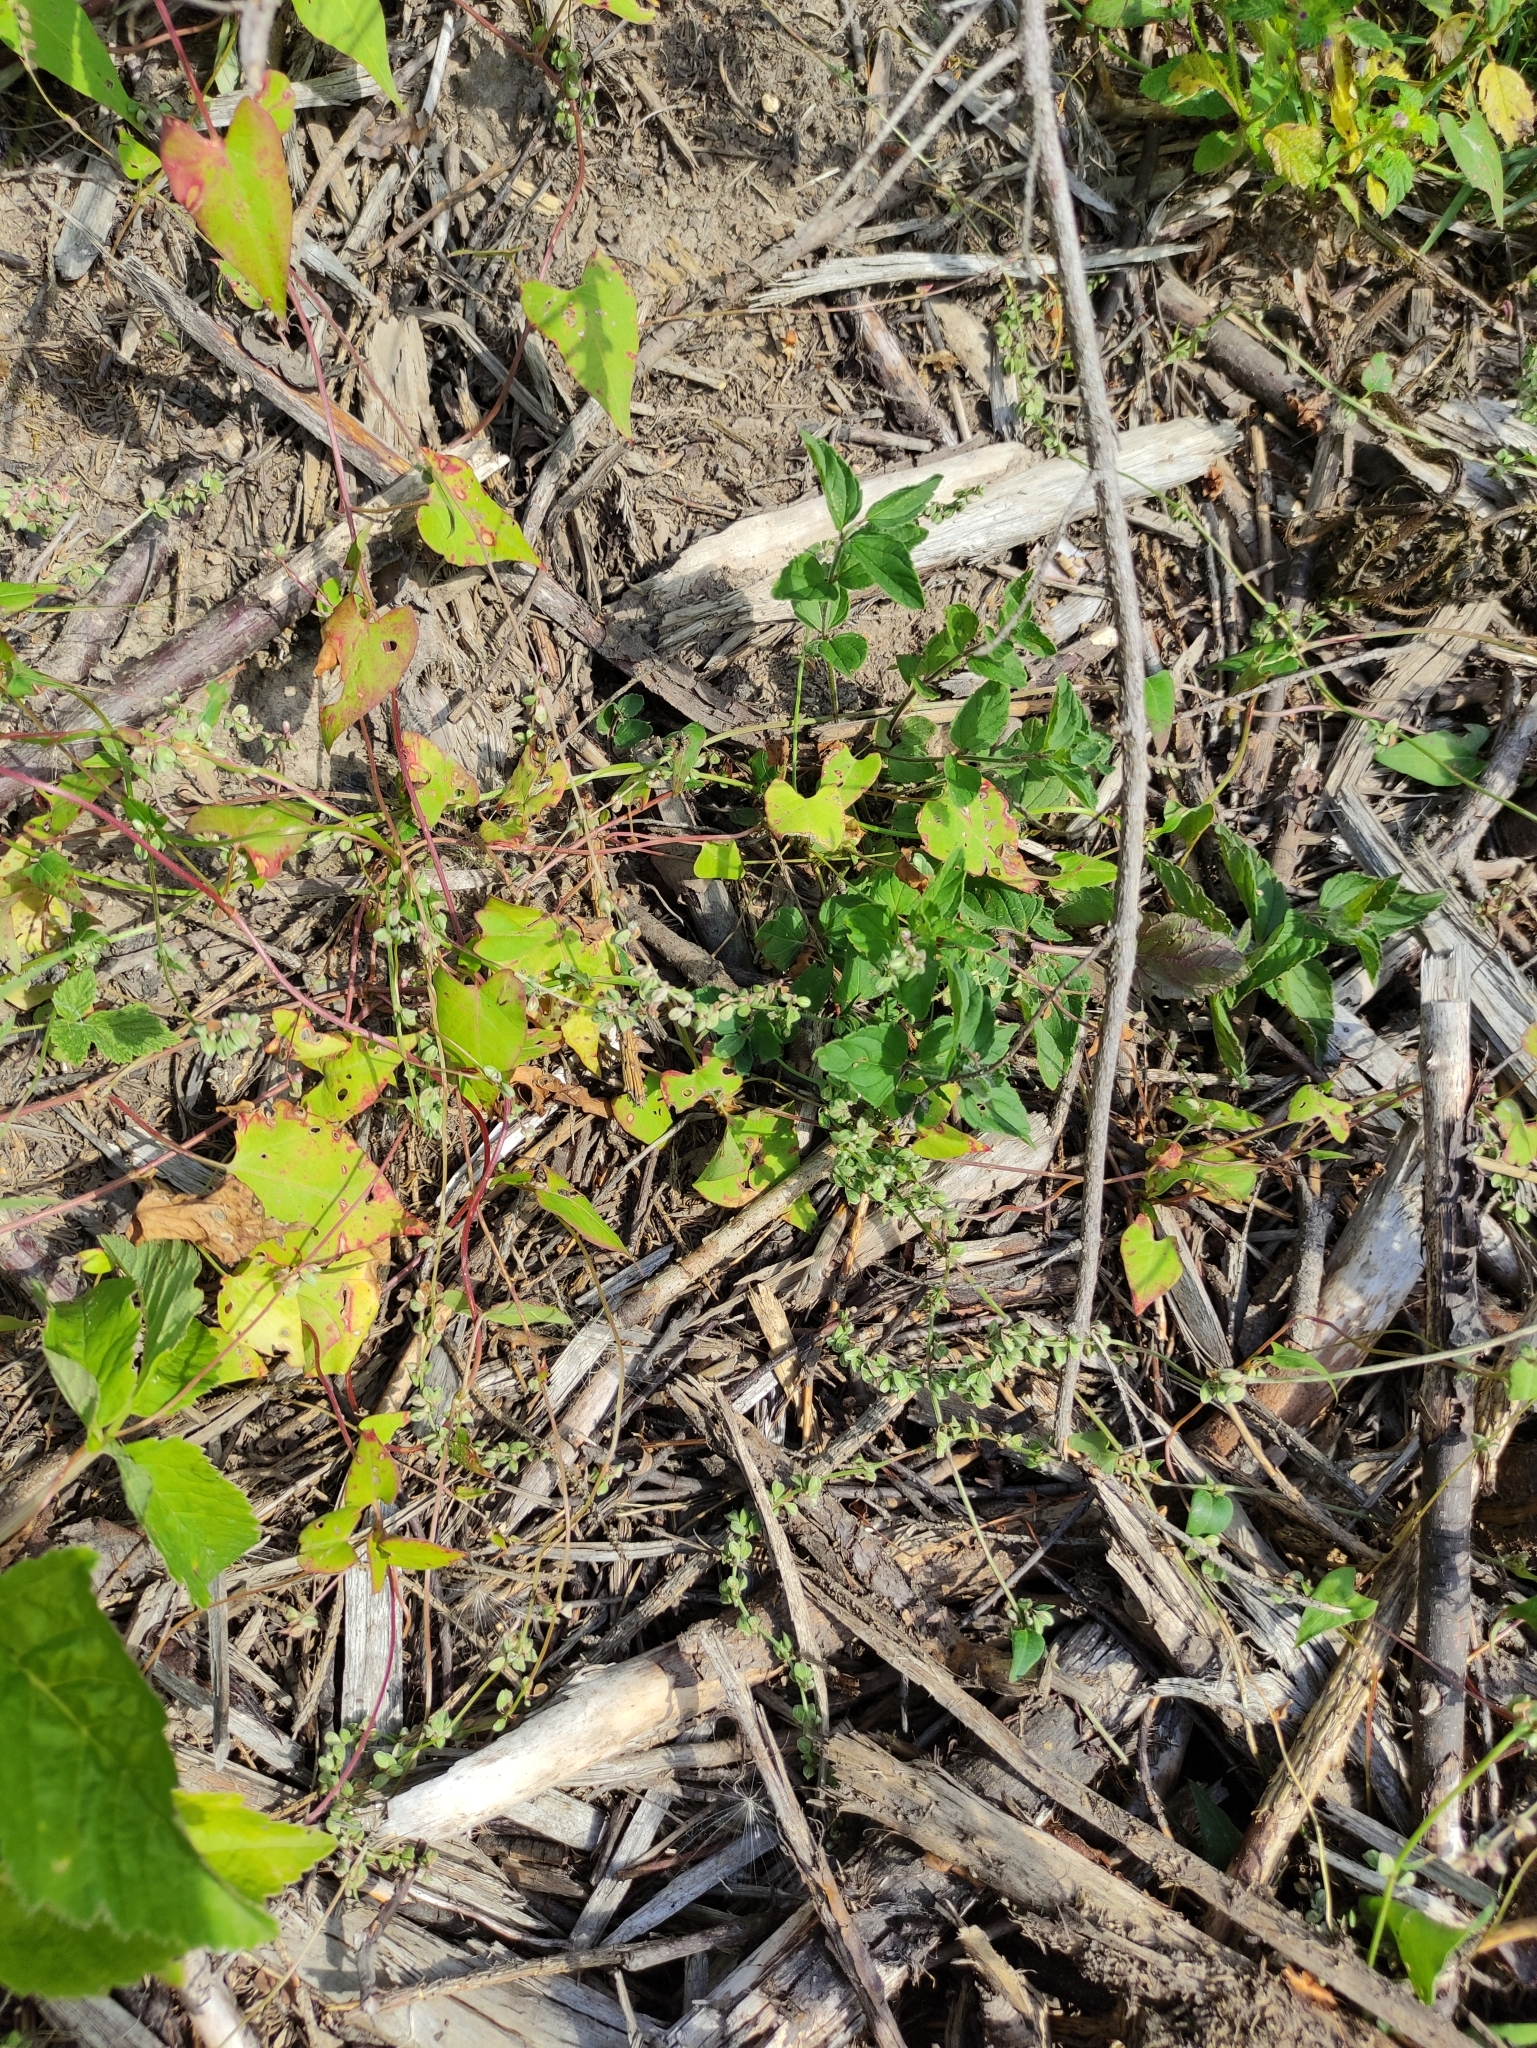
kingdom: Plantae
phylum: Tracheophyta
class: Magnoliopsida
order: Caryophyllales
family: Polygonaceae
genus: Fallopia
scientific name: Fallopia convolvulus
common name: Black bindweed
